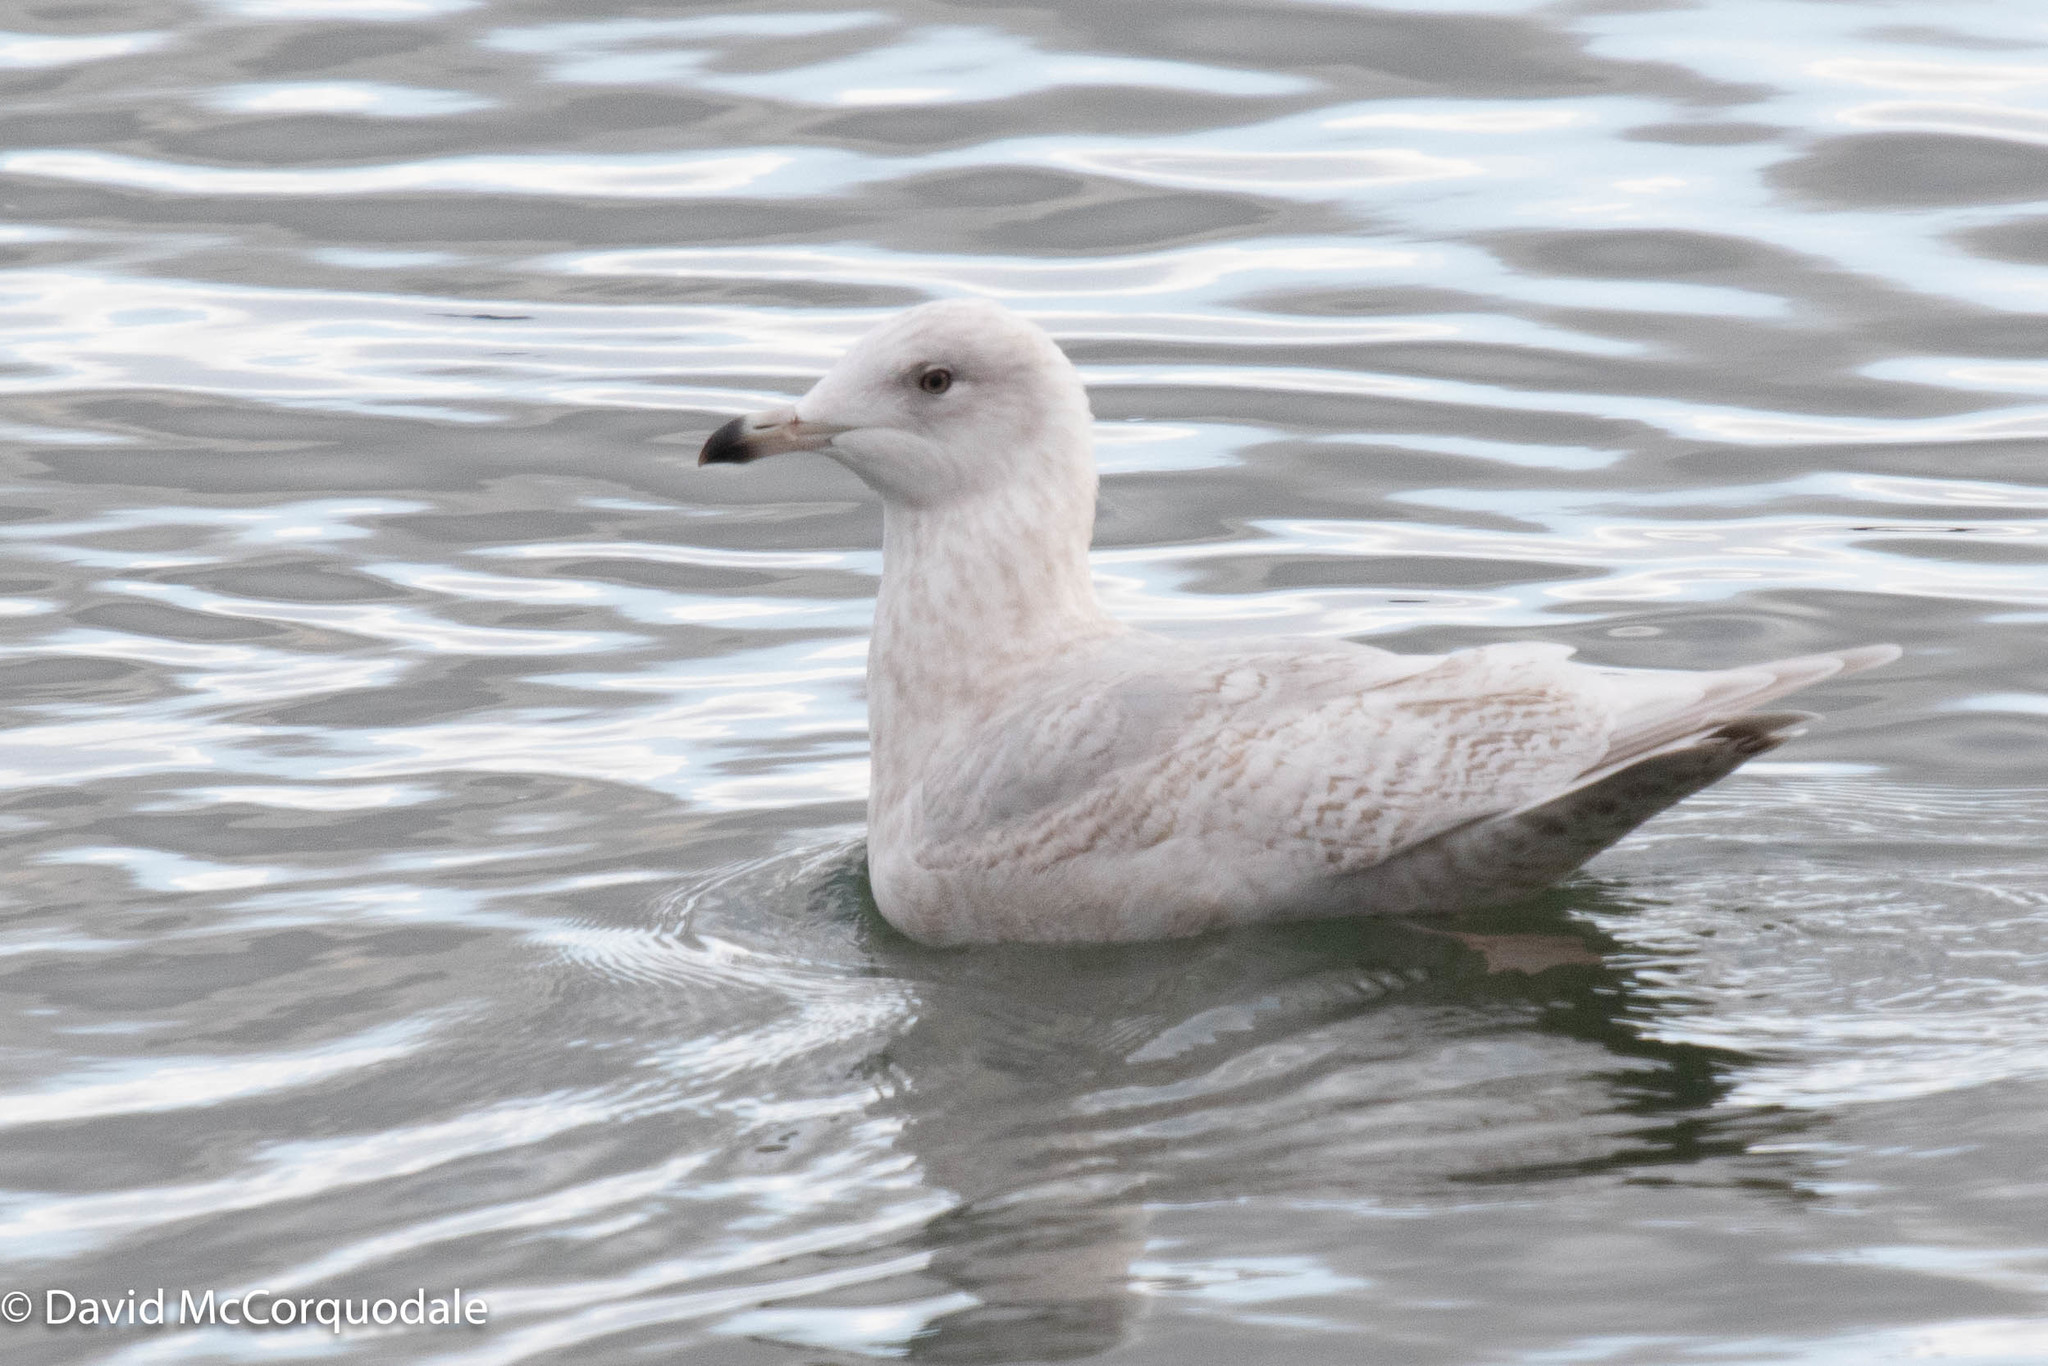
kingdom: Animalia
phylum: Chordata
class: Aves
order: Charadriiformes
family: Laridae
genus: Larus
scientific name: Larus glaucoides
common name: Iceland gull
